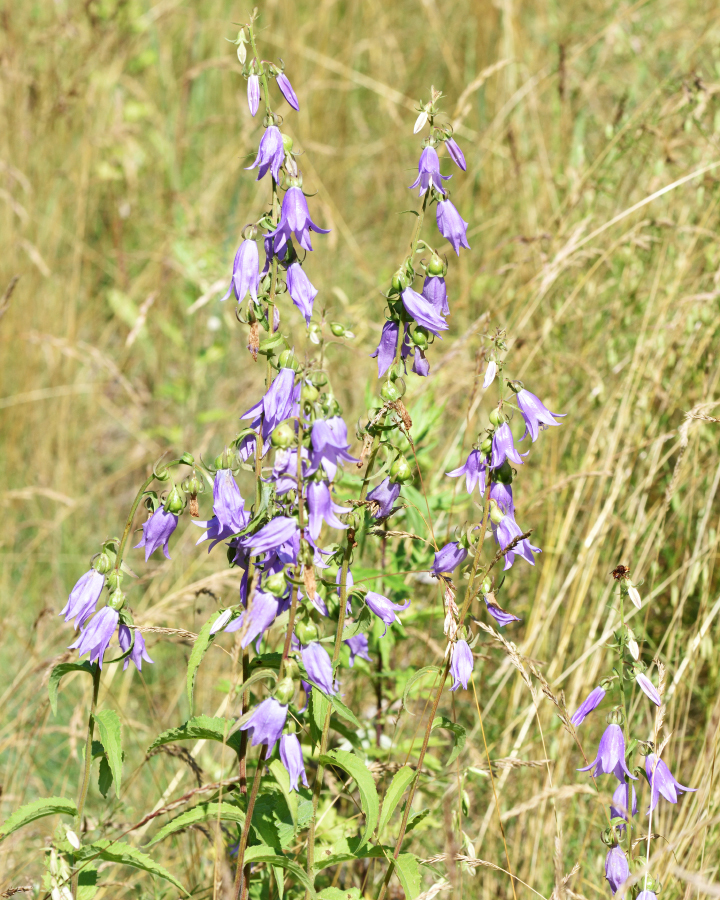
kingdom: Plantae
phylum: Tracheophyta
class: Magnoliopsida
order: Asterales
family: Campanulaceae
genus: Campanula
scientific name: Campanula rapunculoides
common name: Creeping bellflower
